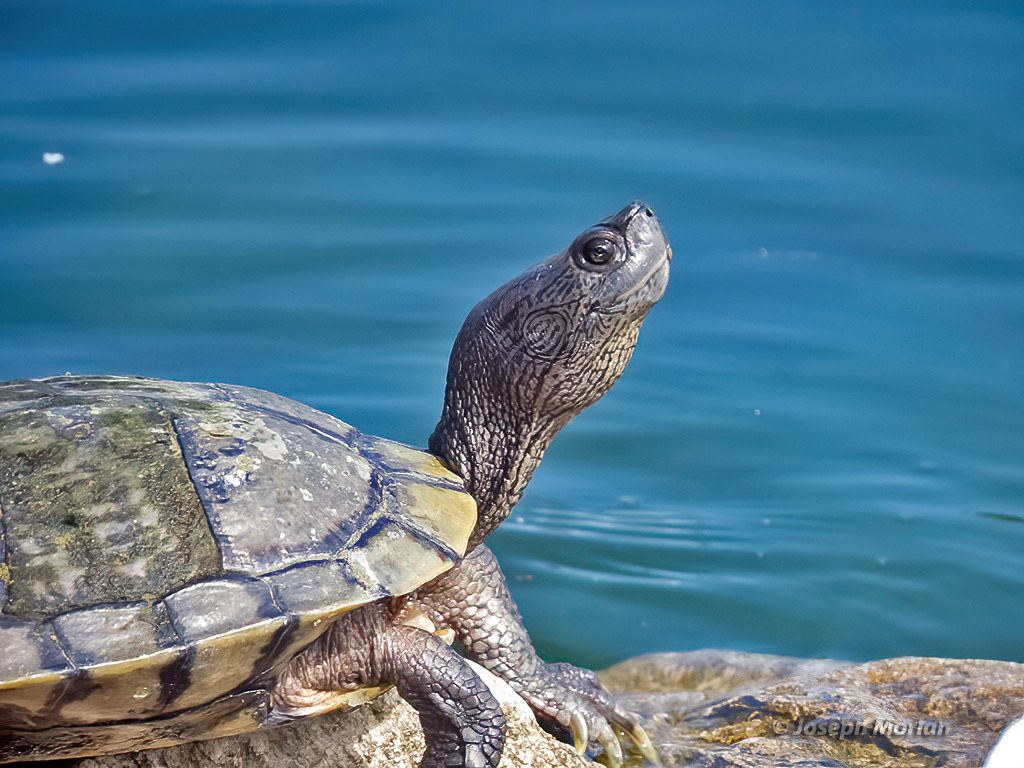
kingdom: Animalia
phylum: Chordata
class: Testudines
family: Emydidae
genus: Trachemys
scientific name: Trachemys scripta
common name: Slider
